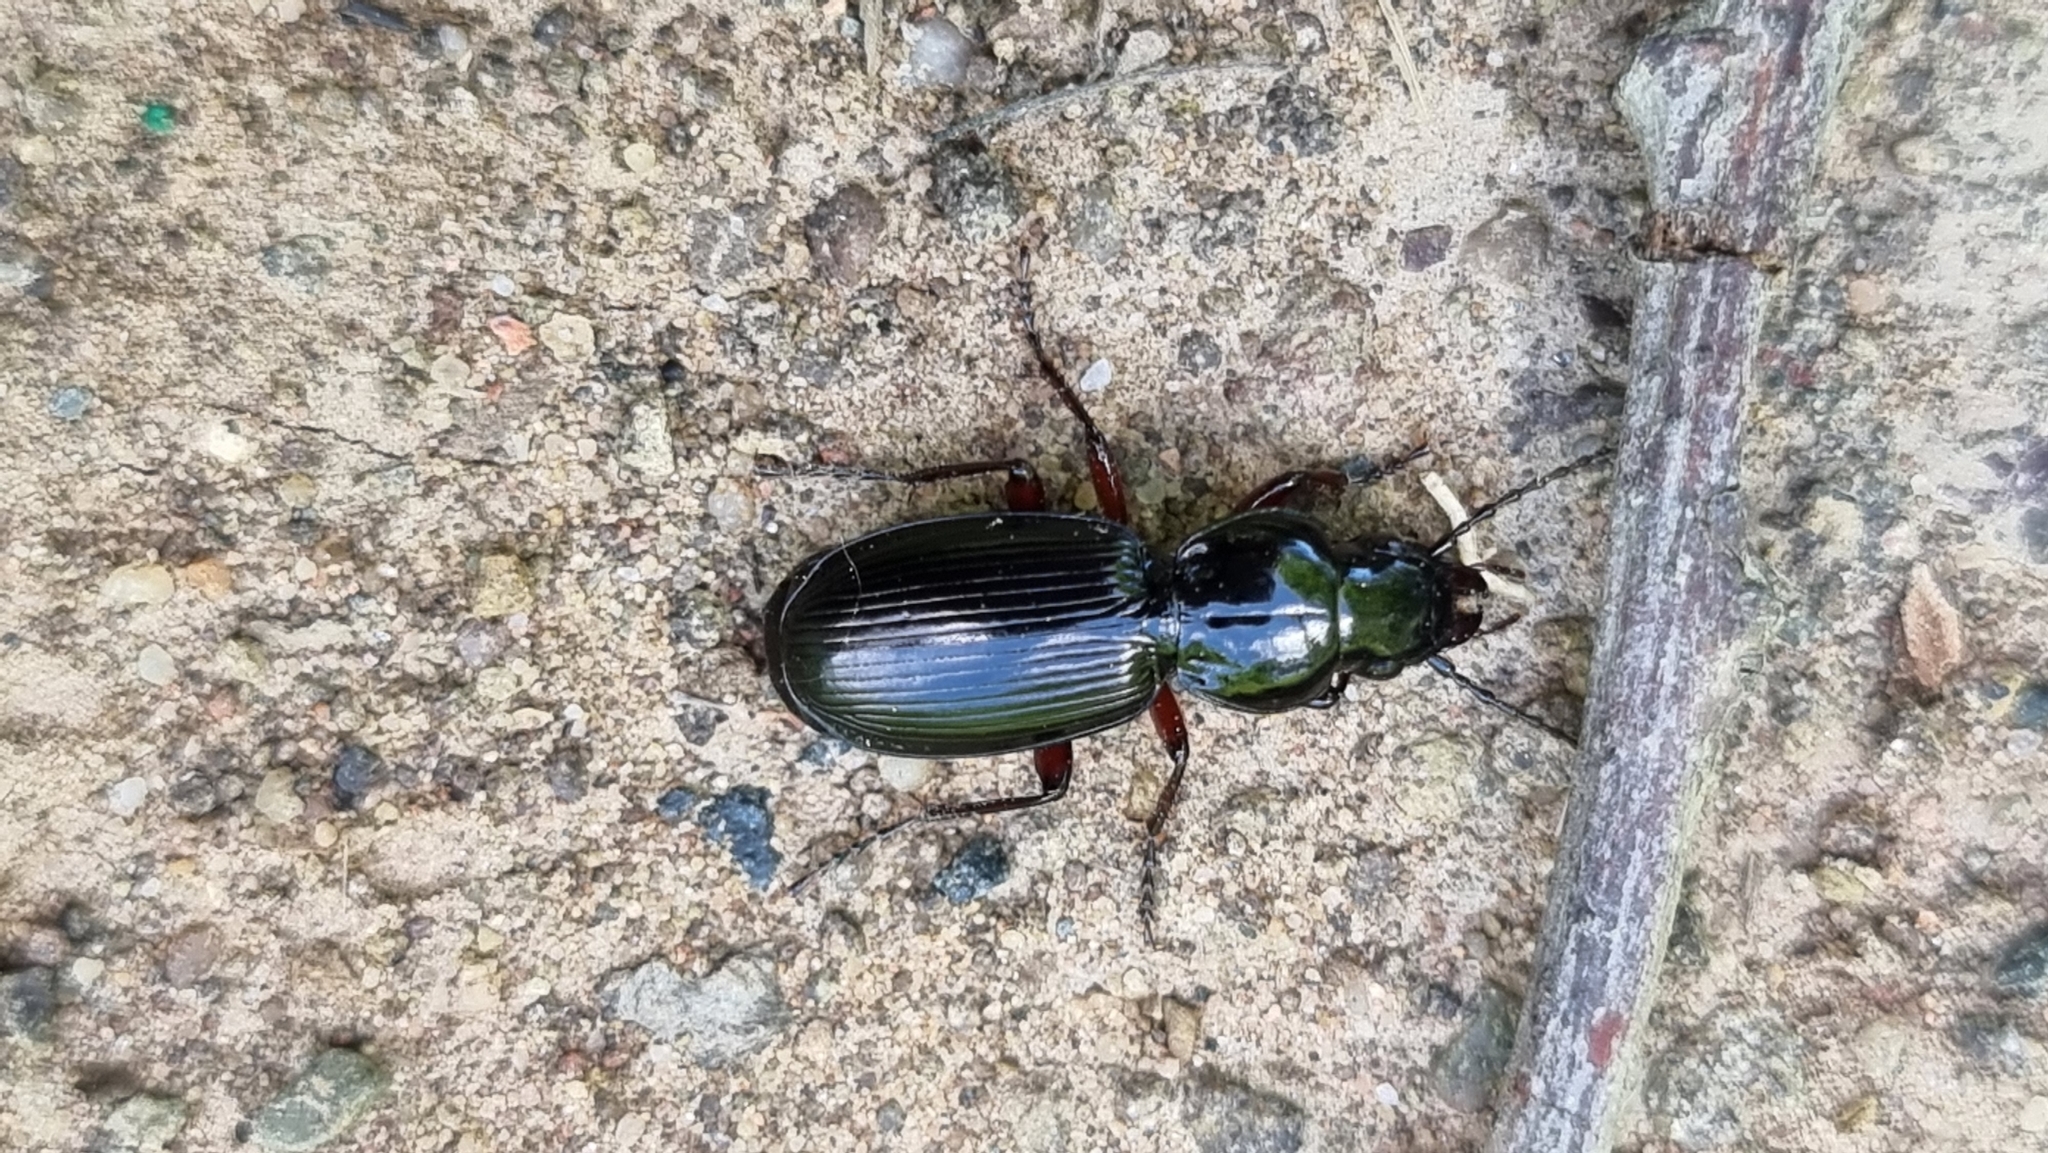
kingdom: Animalia
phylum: Arthropoda
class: Insecta
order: Coleoptera
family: Carabidae
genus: Pterostichus
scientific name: Pterostichus madidus
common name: Black clock
